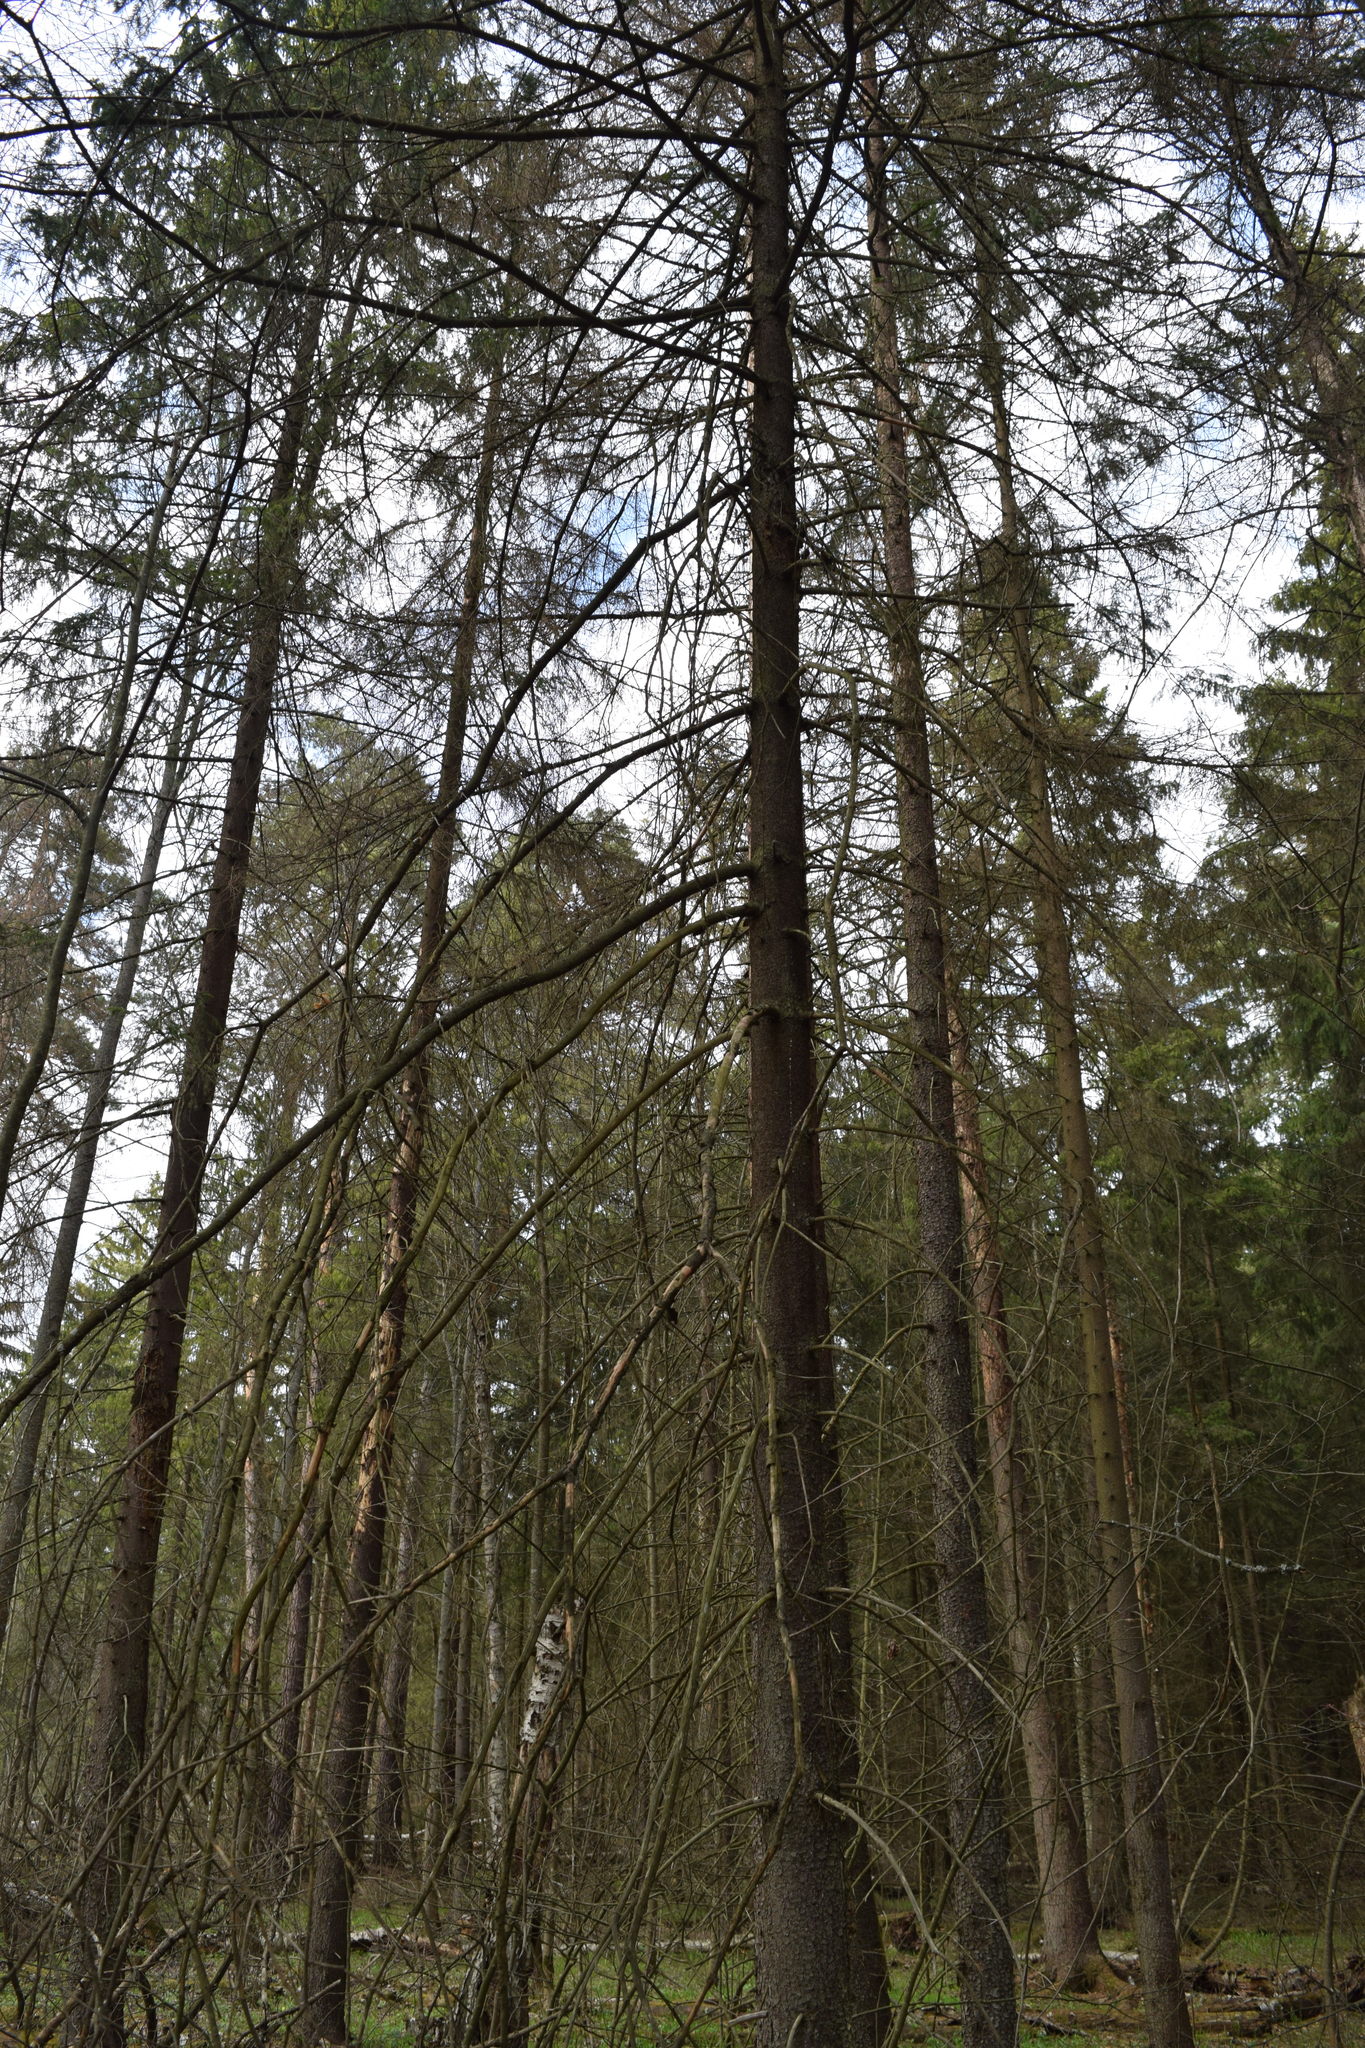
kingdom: Plantae
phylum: Tracheophyta
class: Pinopsida
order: Pinales
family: Pinaceae
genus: Picea
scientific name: Picea abies
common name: Norway spruce
